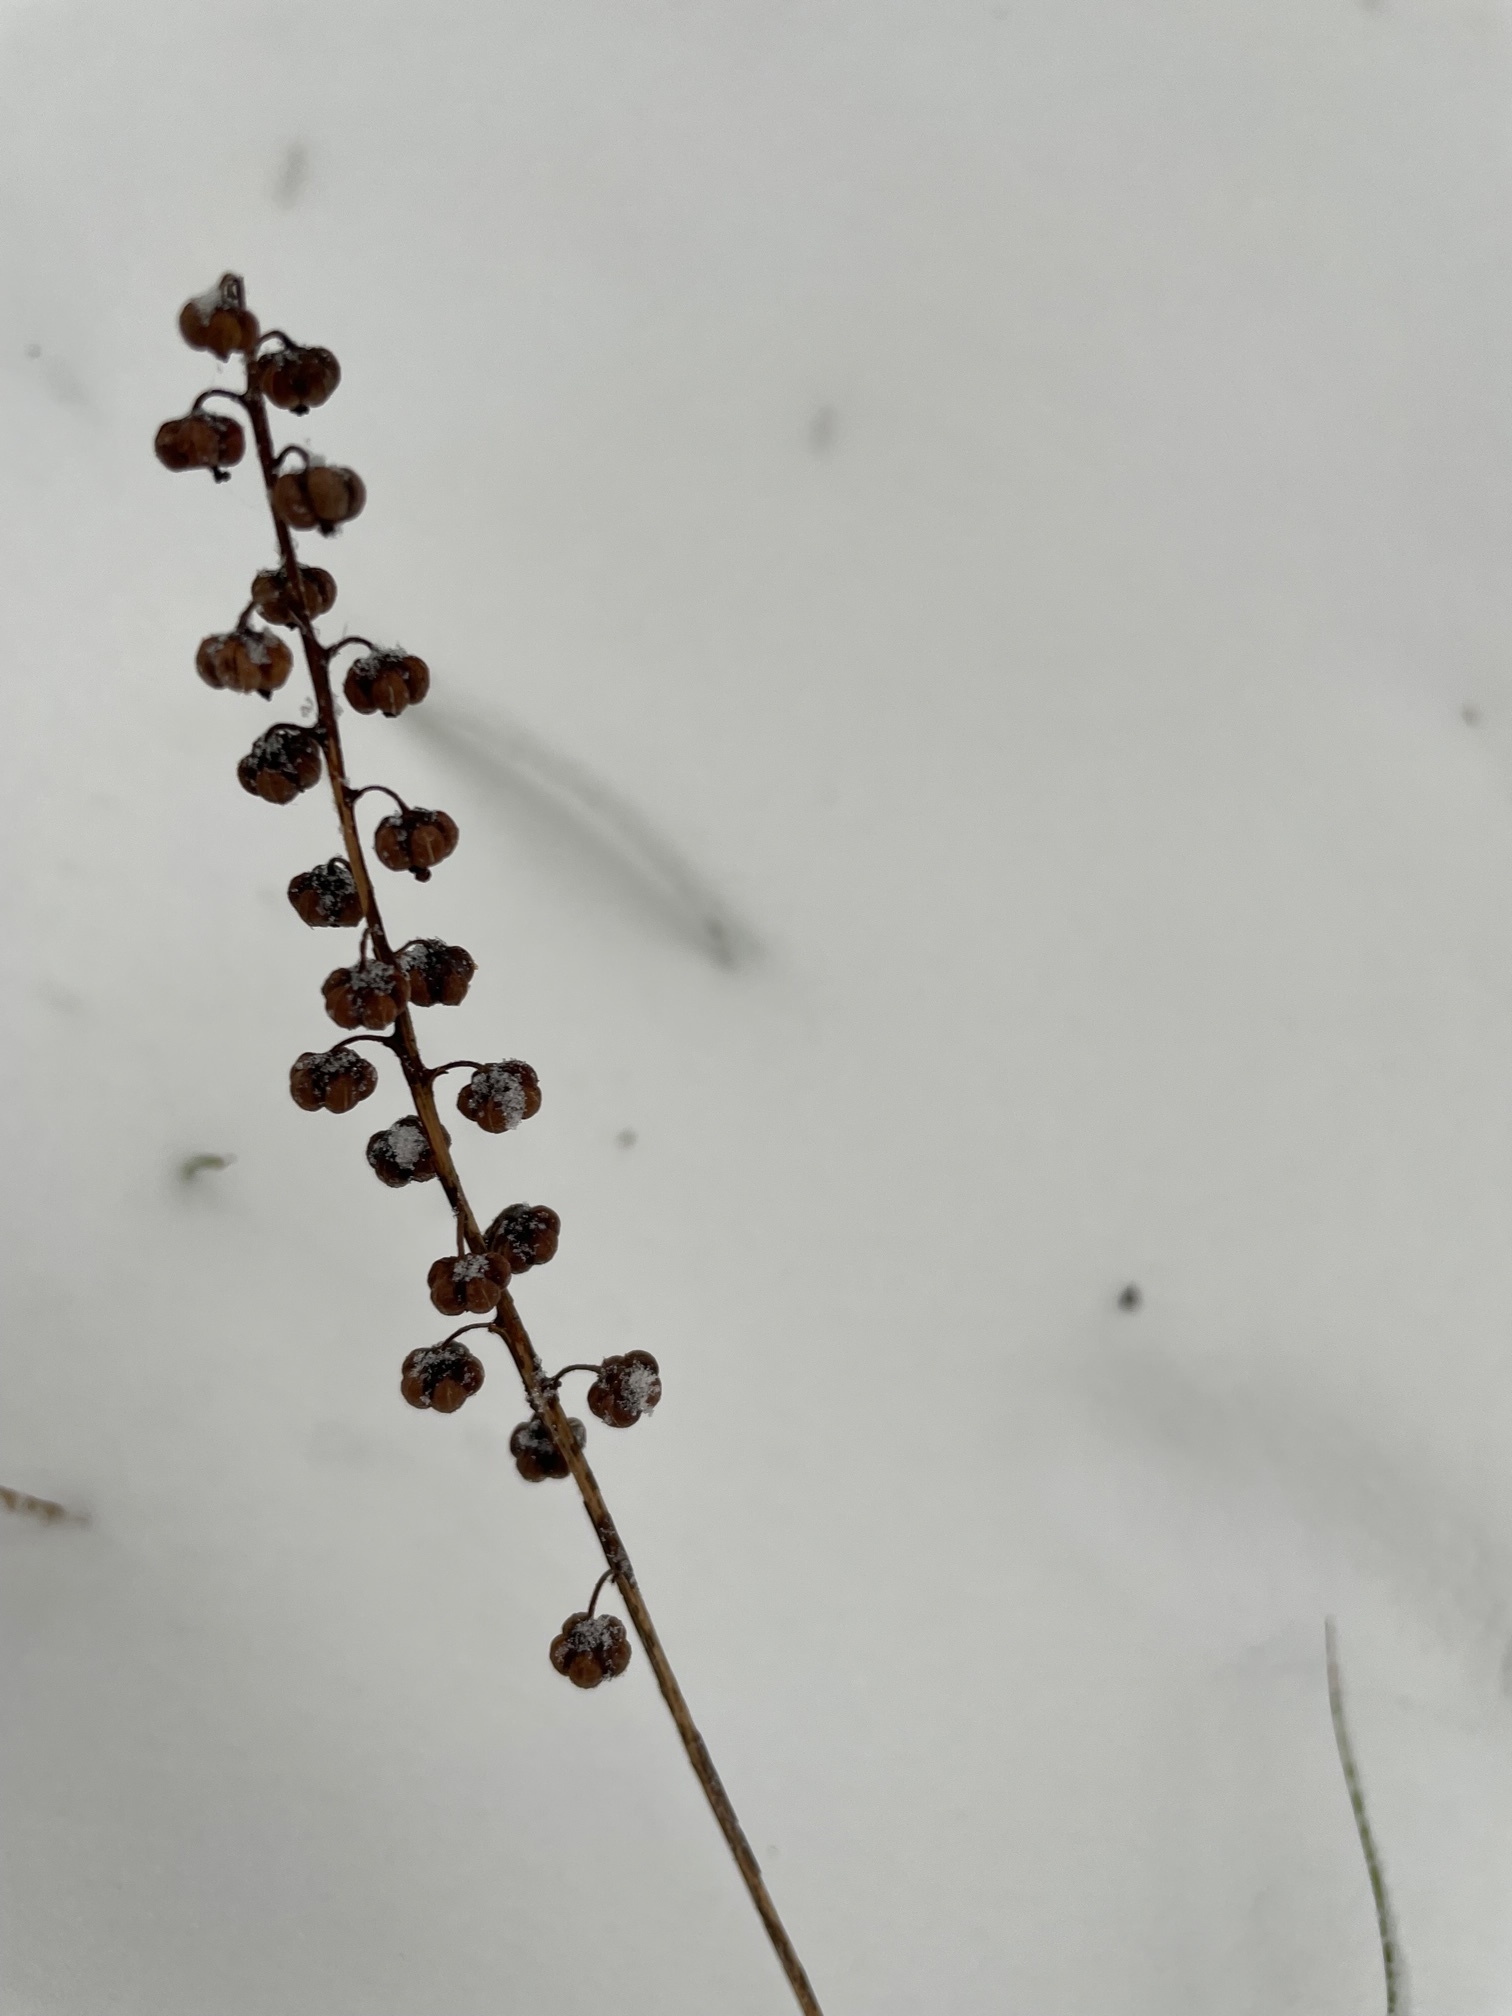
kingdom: Plantae
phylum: Tracheophyta
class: Magnoliopsida
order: Ericales
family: Ericaceae
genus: Pyrola
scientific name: Pyrola minor
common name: Common wintergreen
